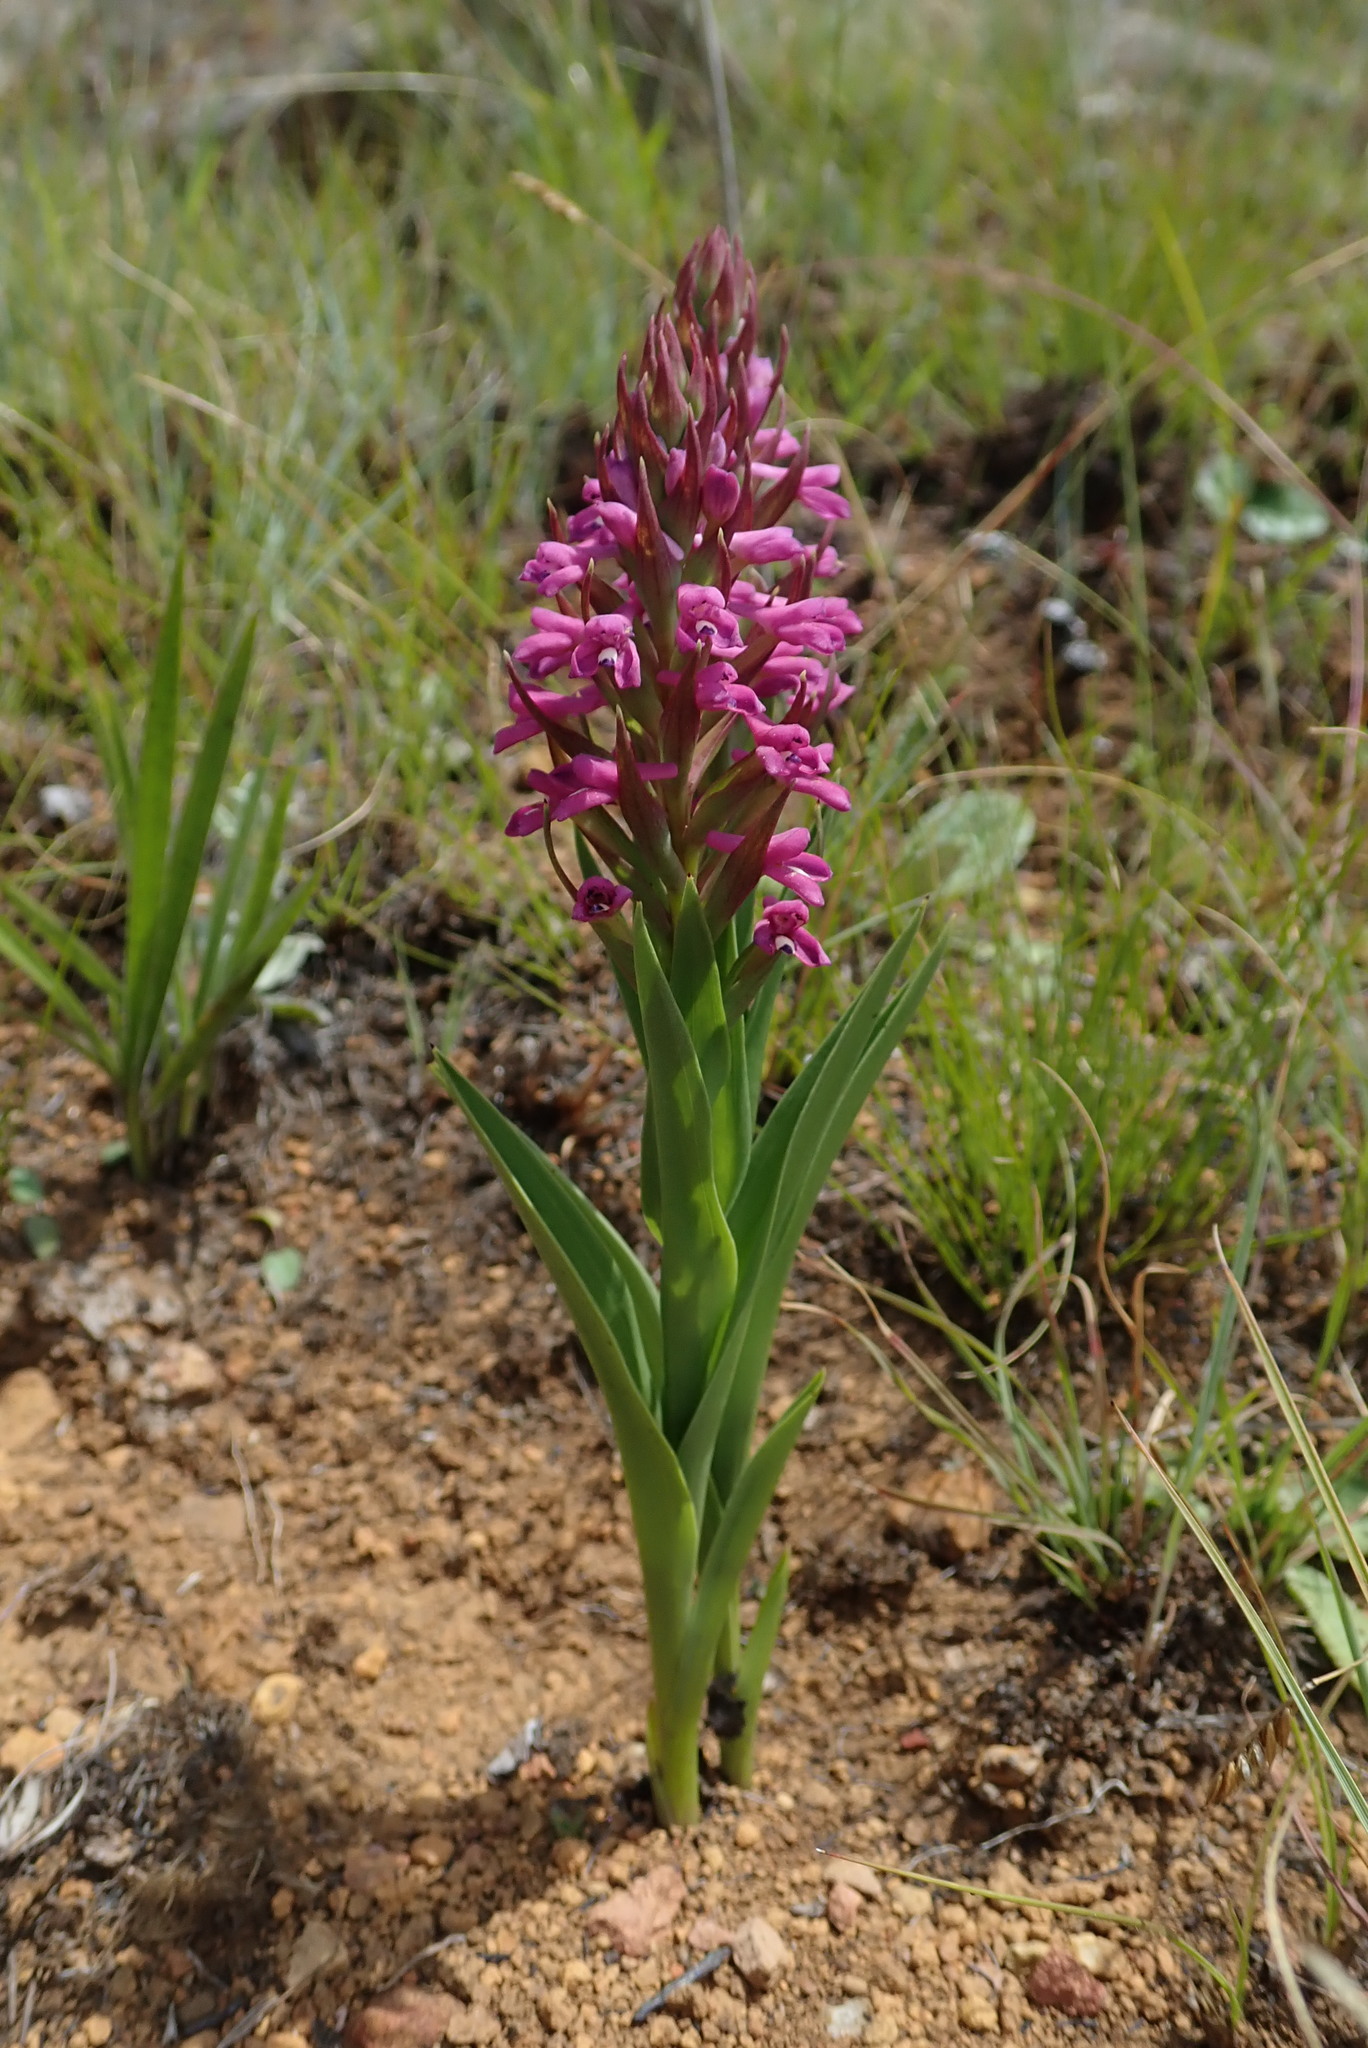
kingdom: Plantae
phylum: Tracheophyta
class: Liliopsida
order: Asparagales
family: Orchidaceae
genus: Disa
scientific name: Disa stachyoides
